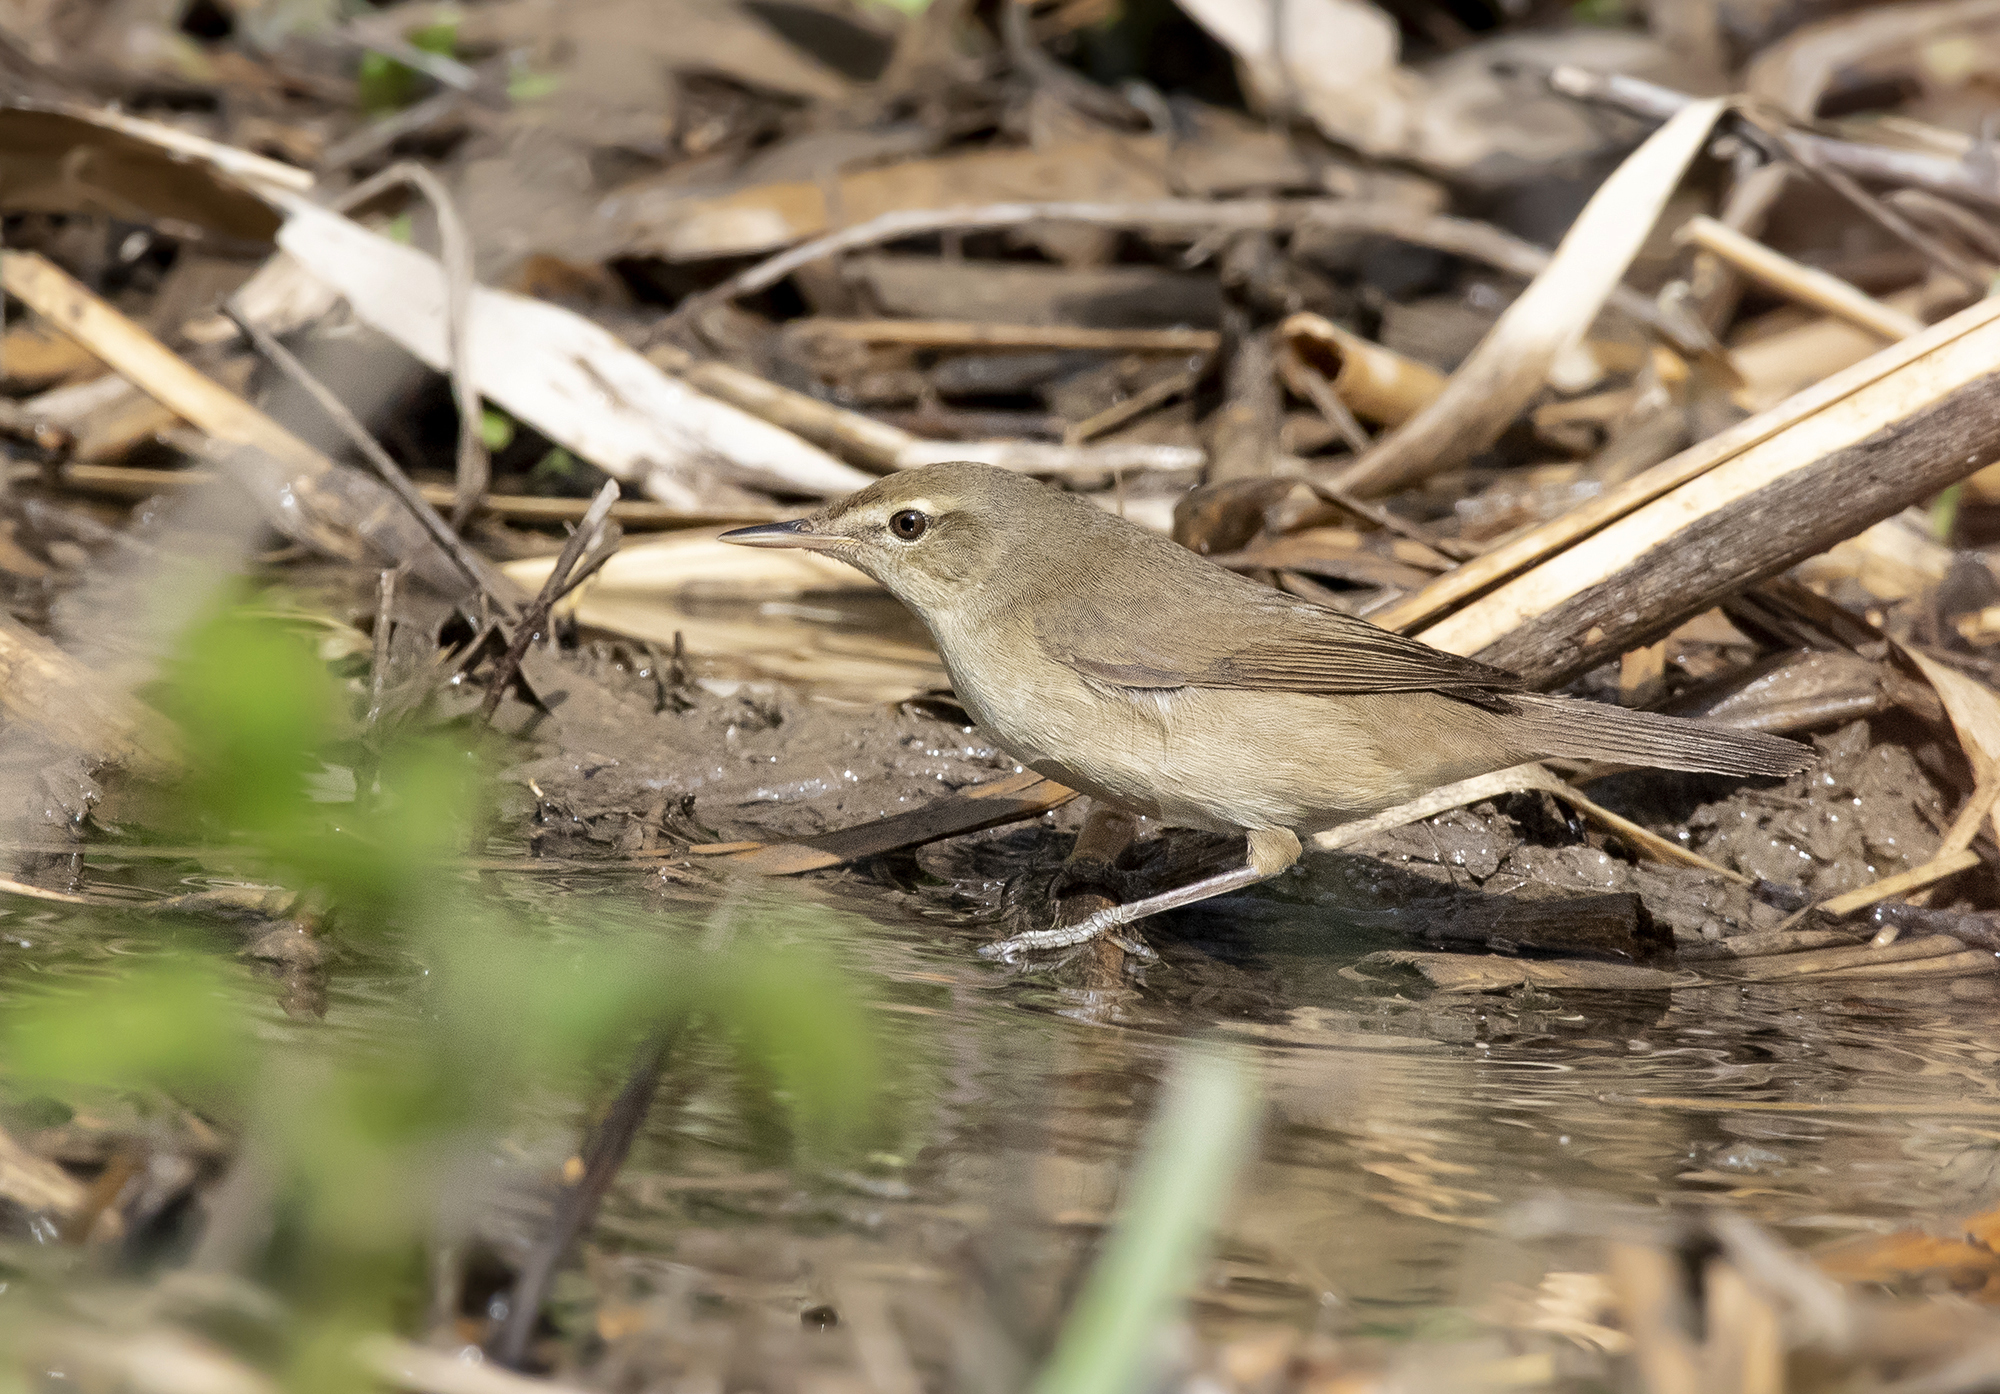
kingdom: Animalia
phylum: Chordata
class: Aves
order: Passeriformes
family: Acrocephalidae
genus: Acrocephalus
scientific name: Acrocephalus dumetorum
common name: Blyth's reed warbler
